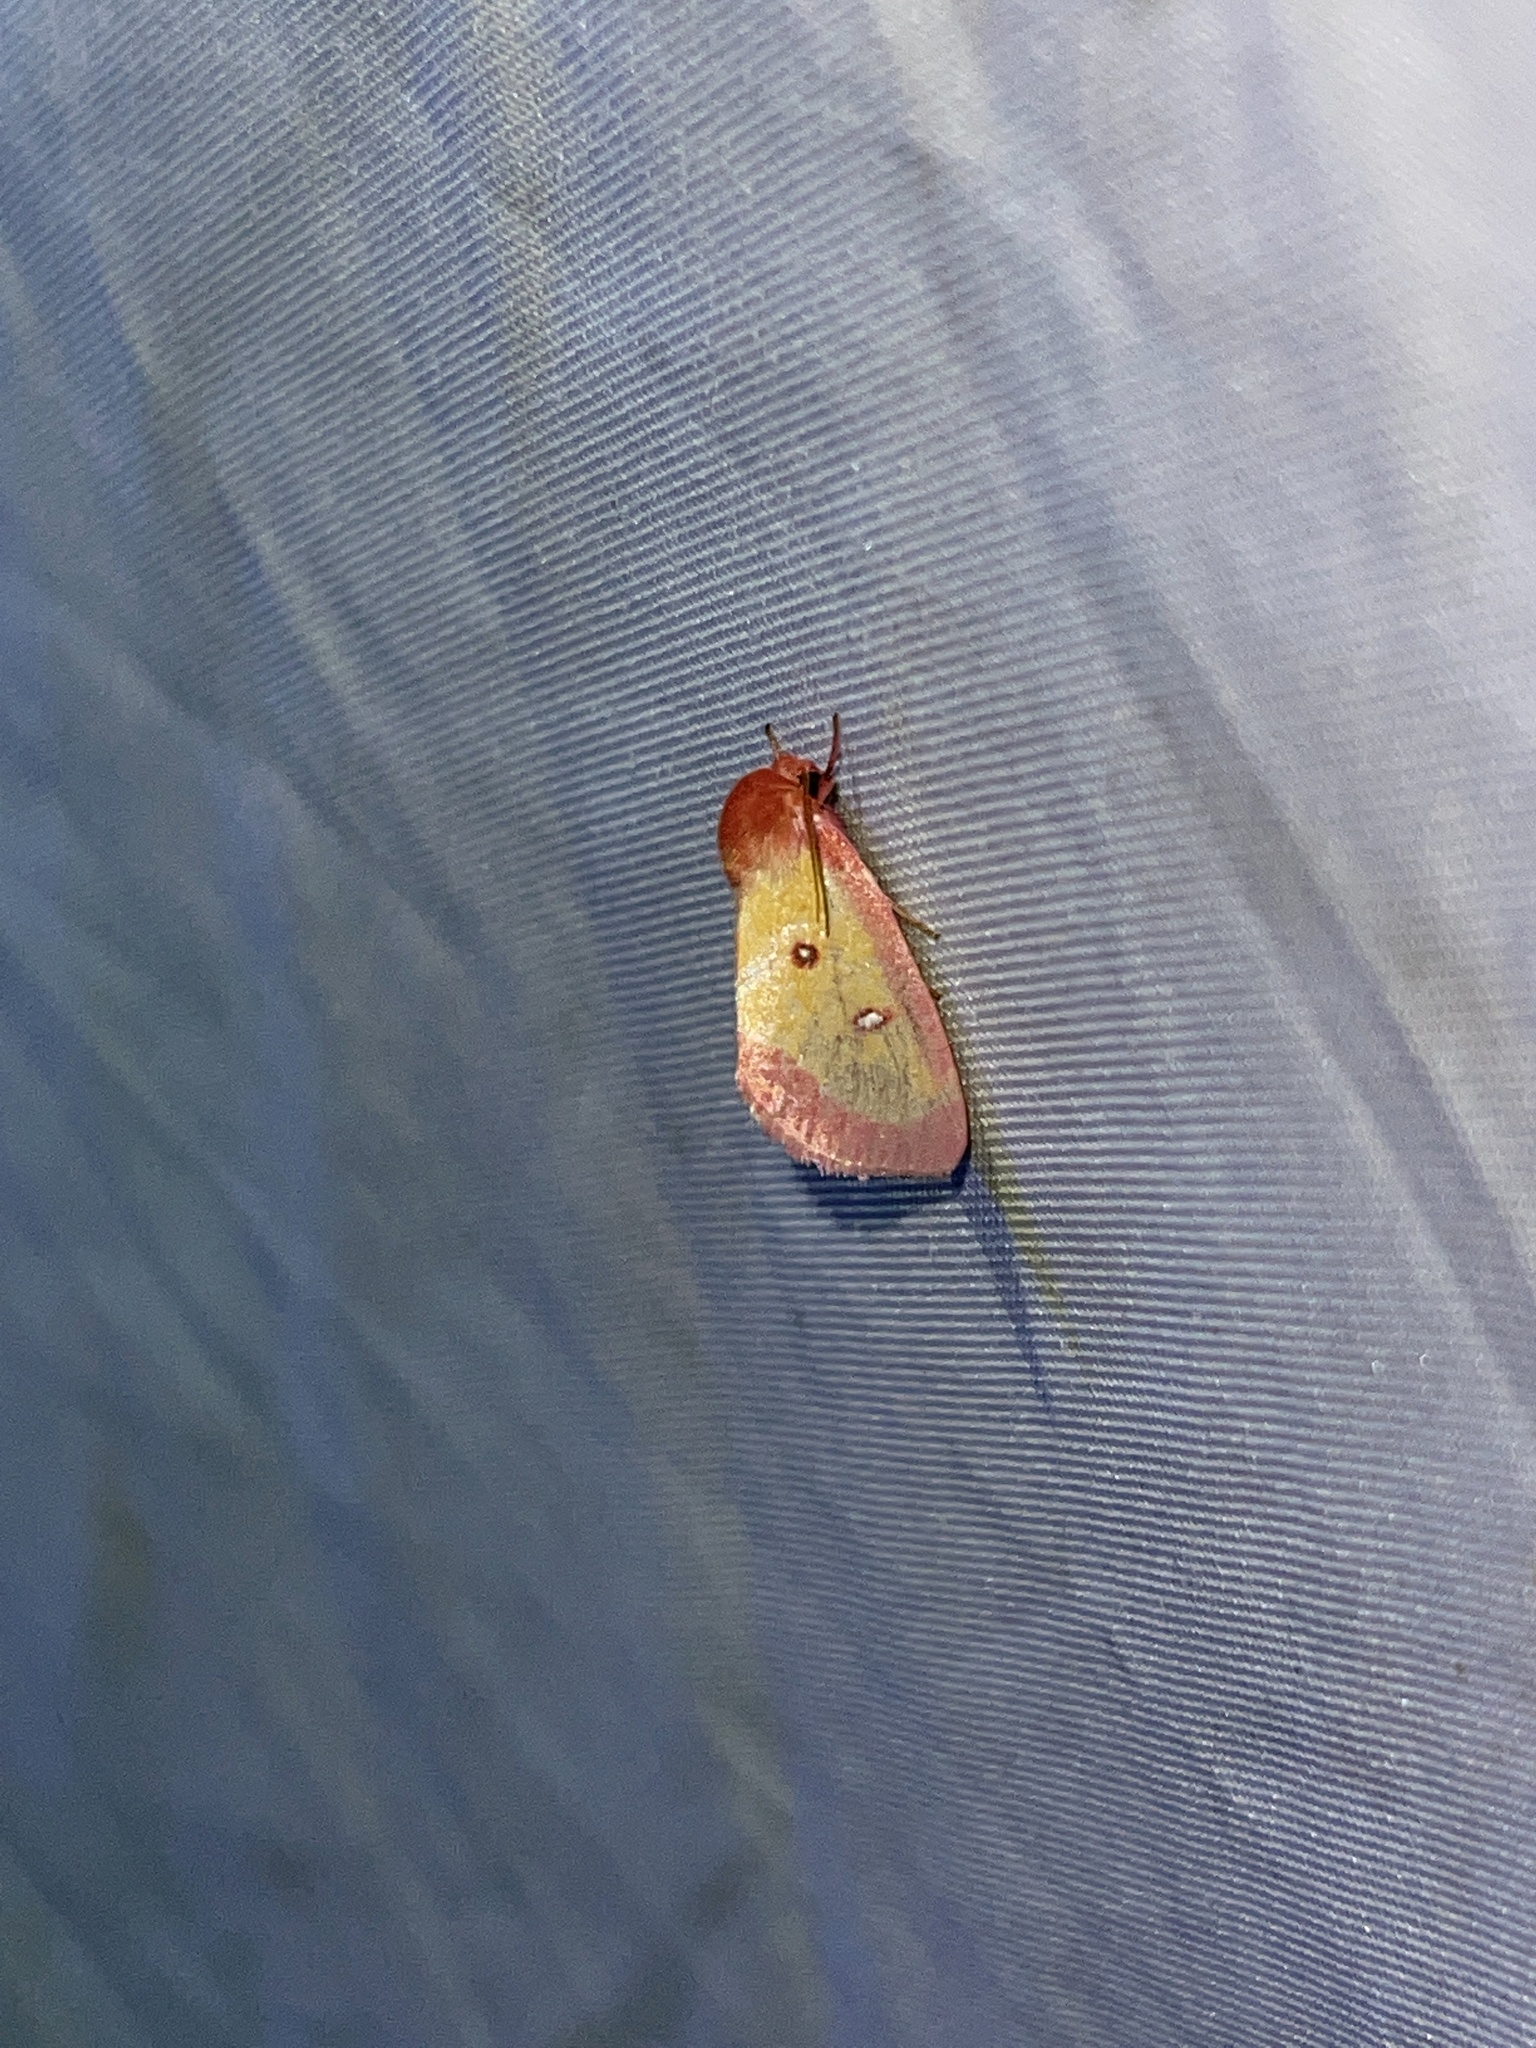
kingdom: Animalia
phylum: Arthropoda
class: Insecta
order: Lepidoptera
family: Noctuidae
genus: Derrima
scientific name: Derrima stellata
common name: Pink star moth
